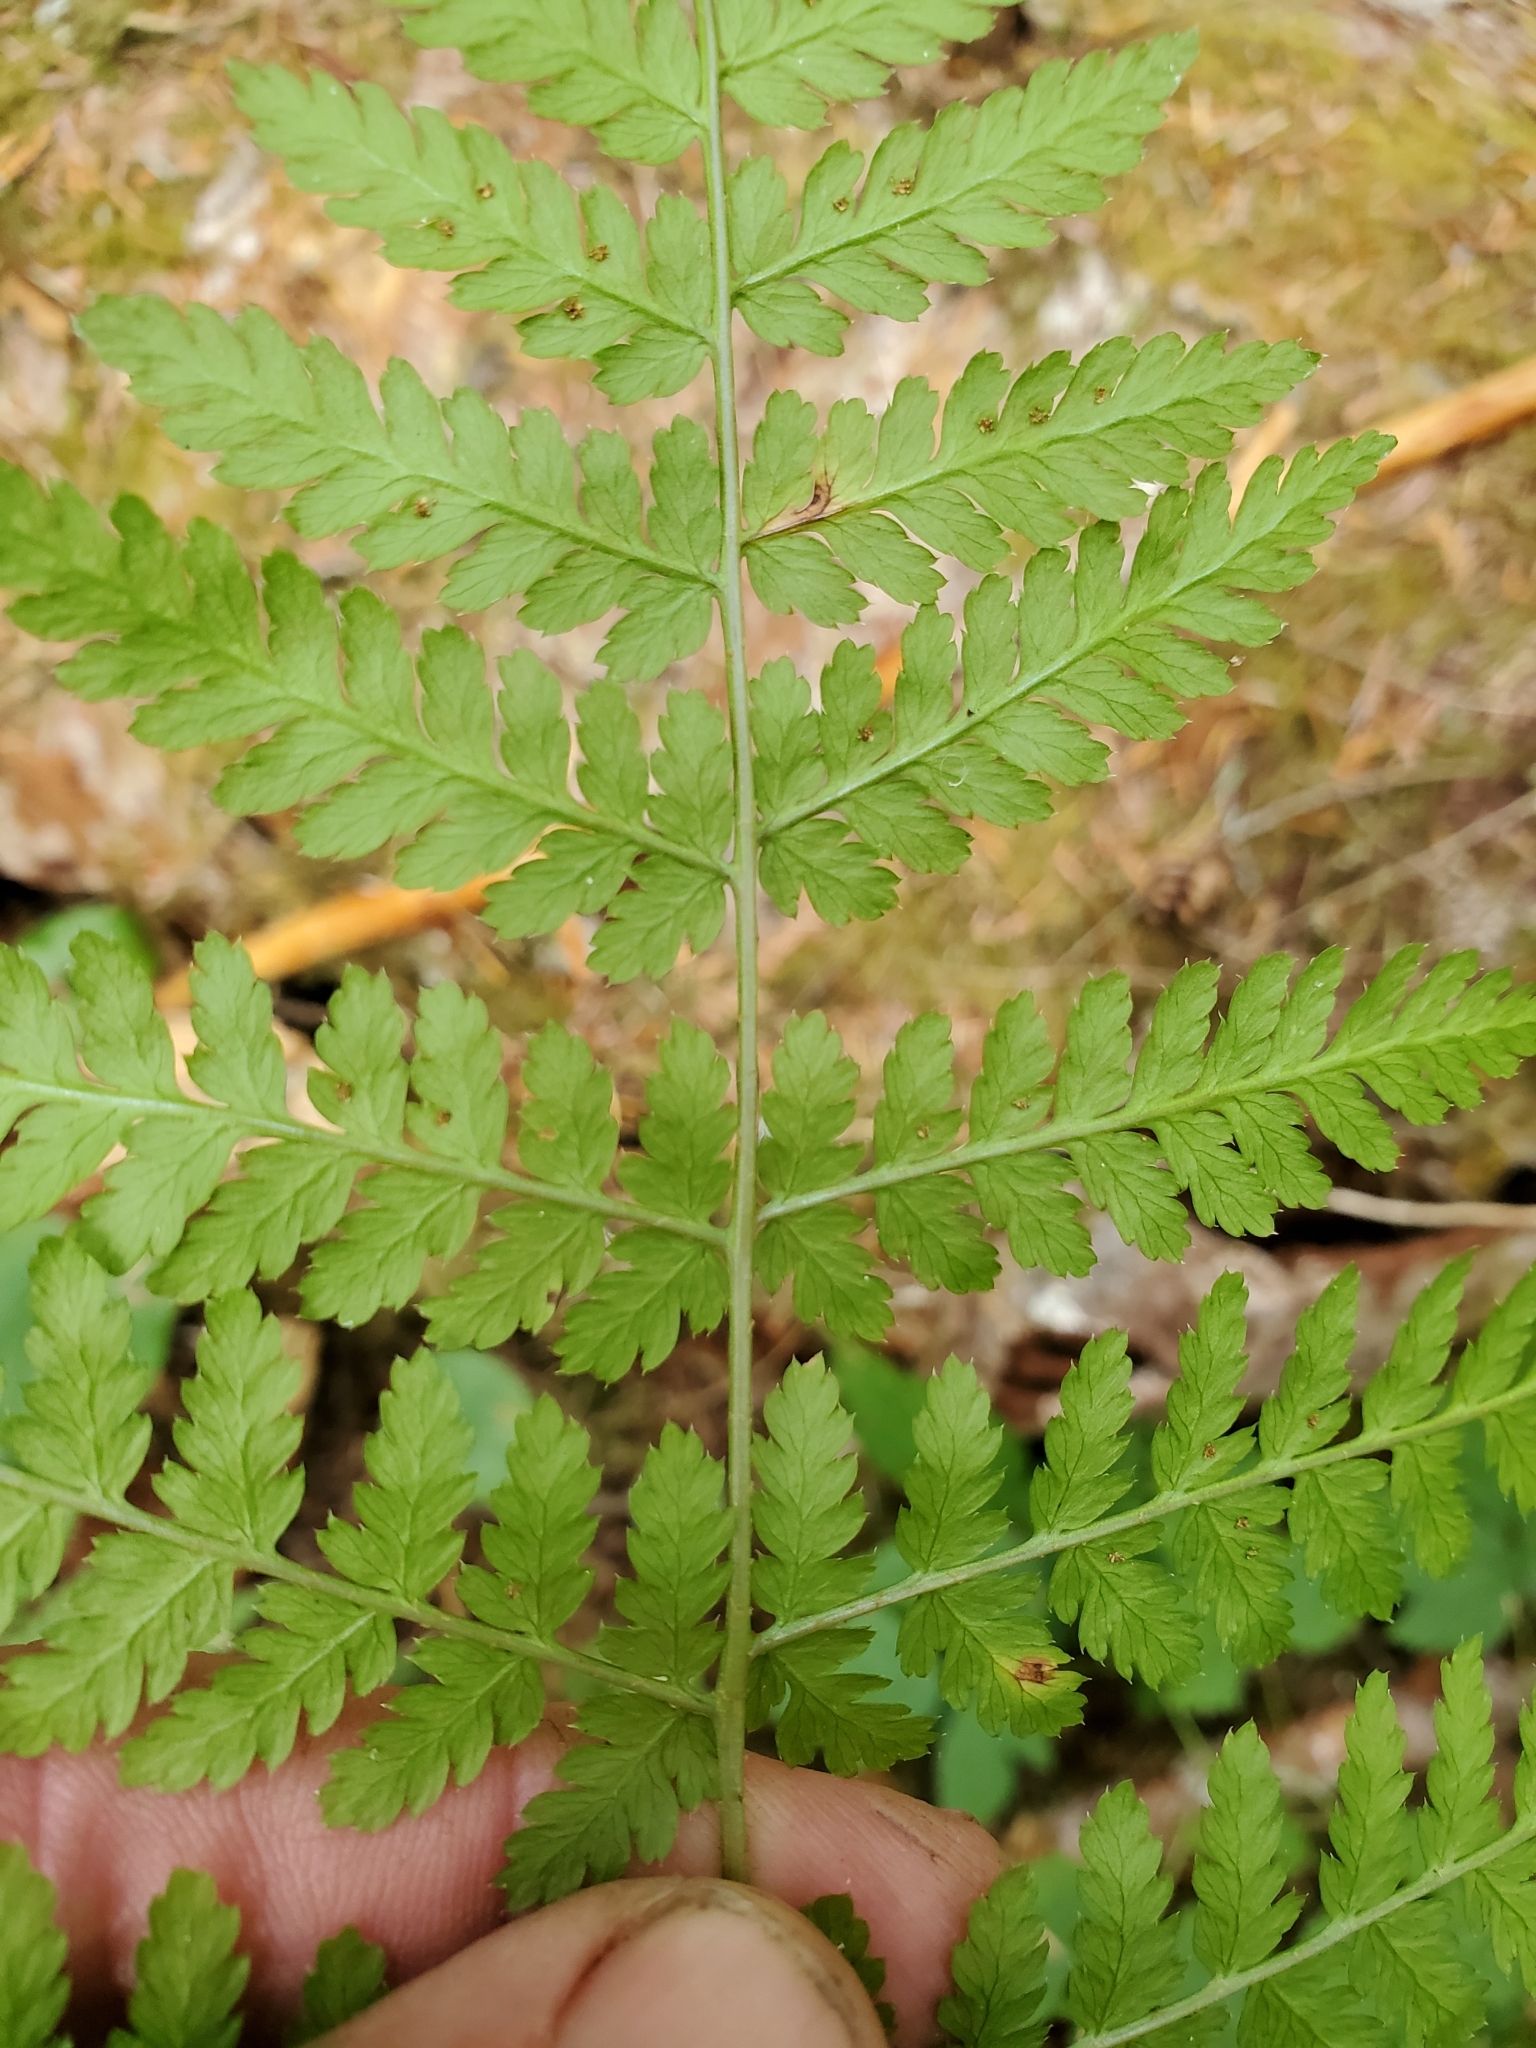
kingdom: Plantae
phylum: Tracheophyta
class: Polypodiopsida
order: Polypodiales
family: Dryopteridaceae
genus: Dryopteris
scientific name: Dryopteris expansa
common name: Northern buckler fern
